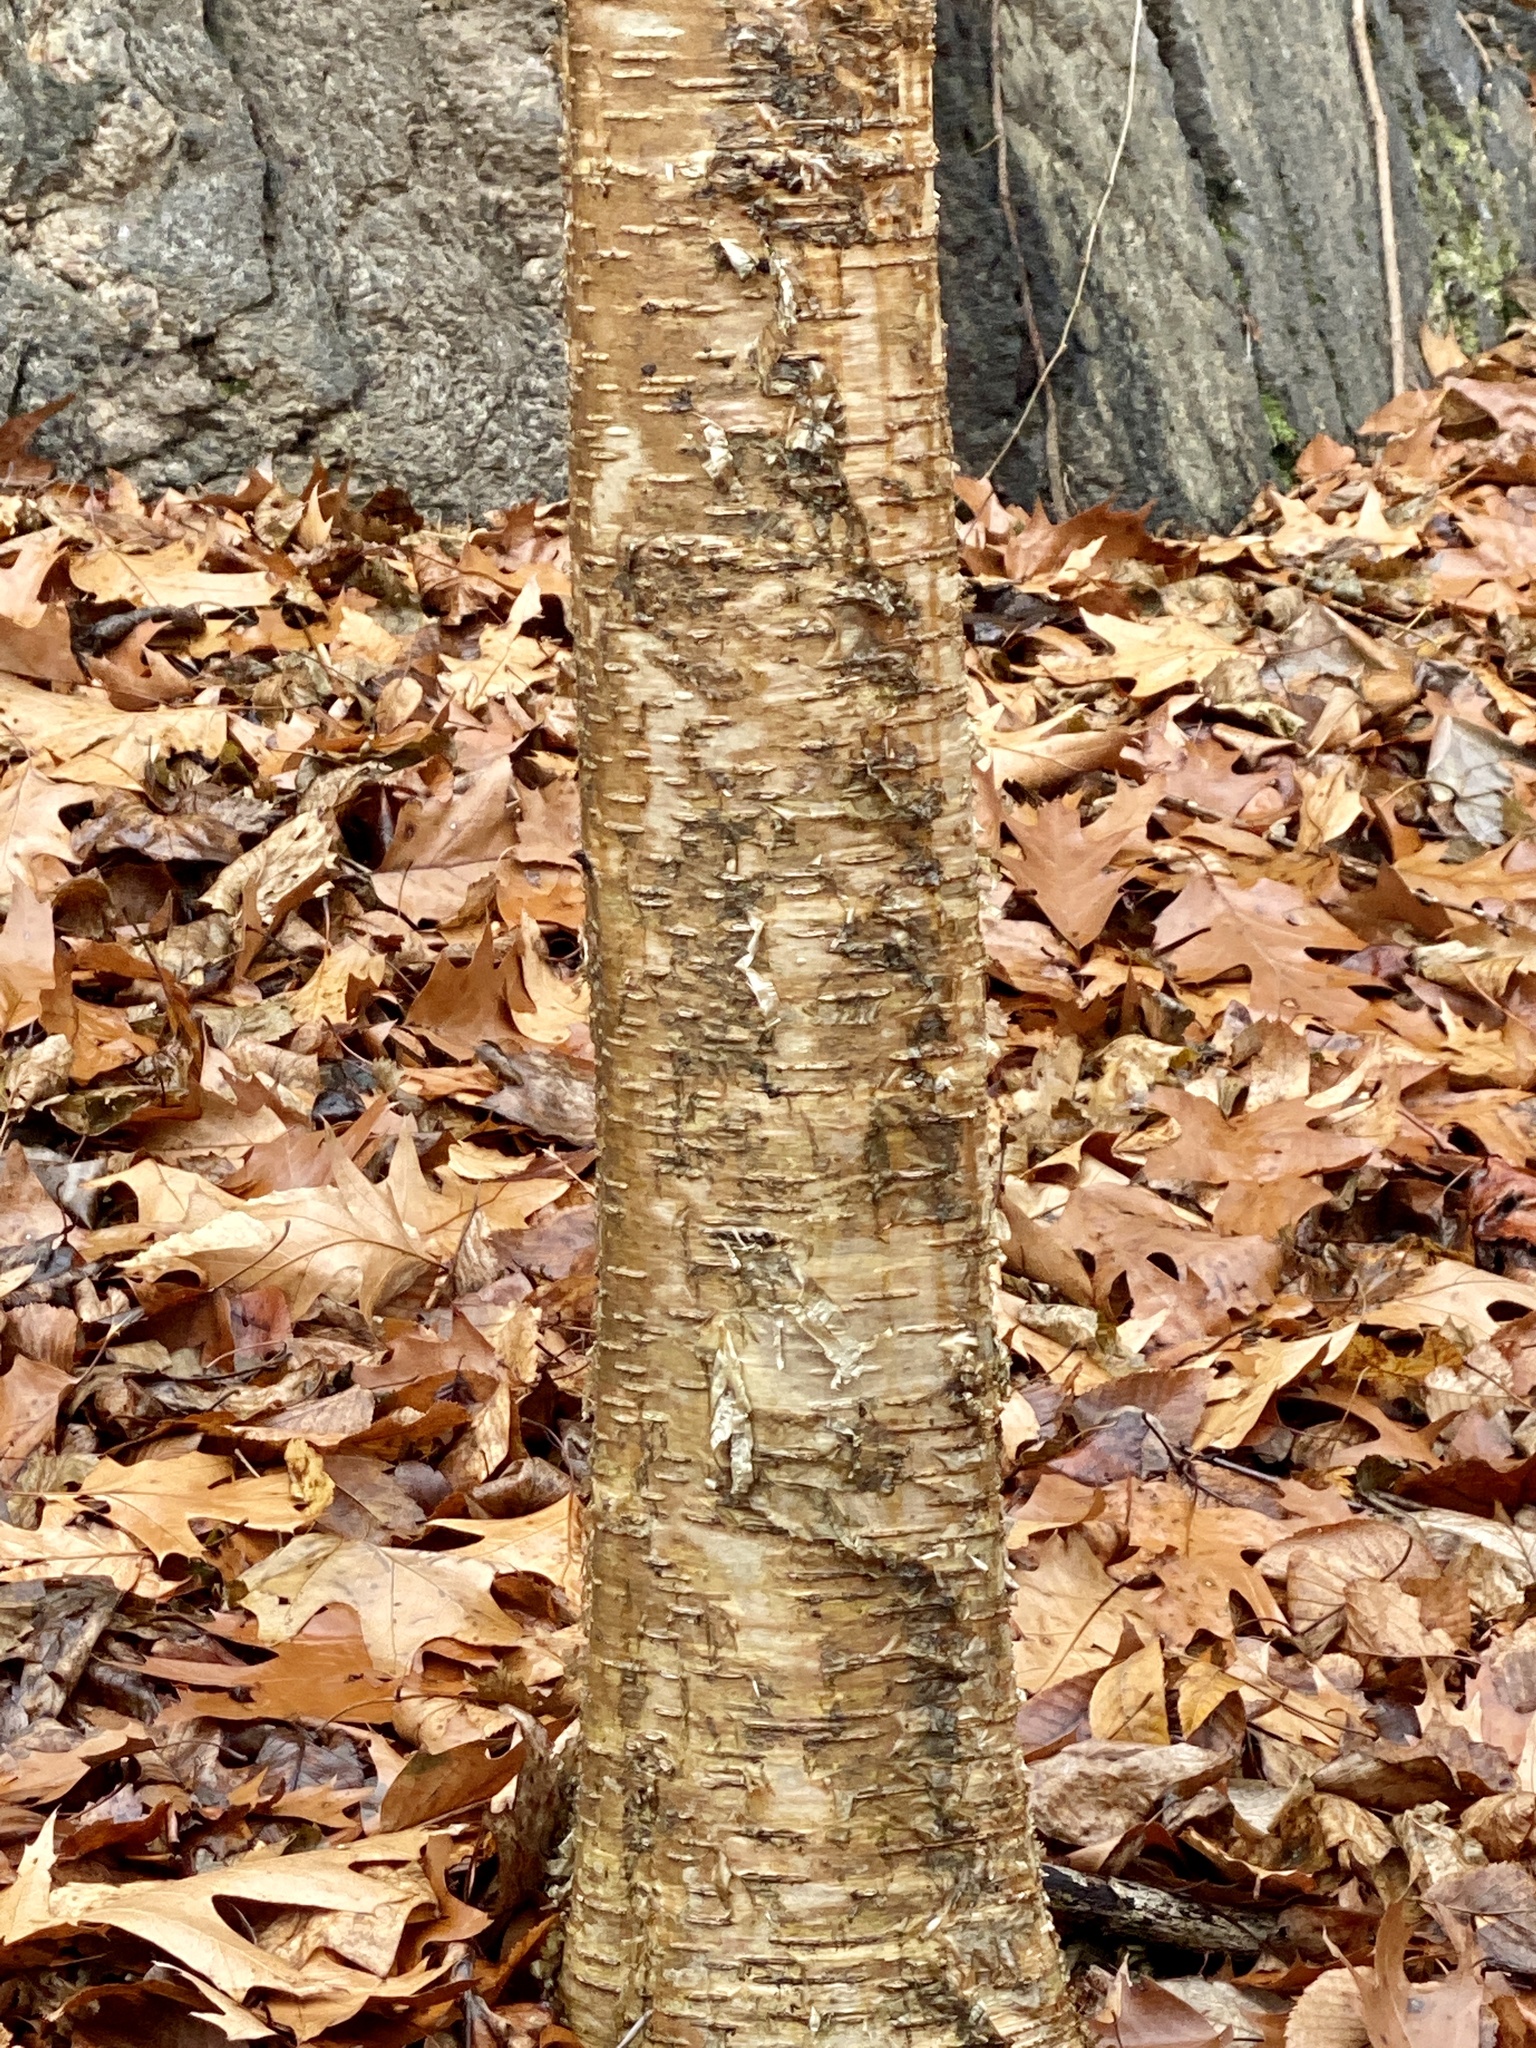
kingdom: Plantae
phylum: Tracheophyta
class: Magnoliopsida
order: Fagales
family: Betulaceae
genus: Betula
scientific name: Betula alleghaniensis
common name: Yellow birch
